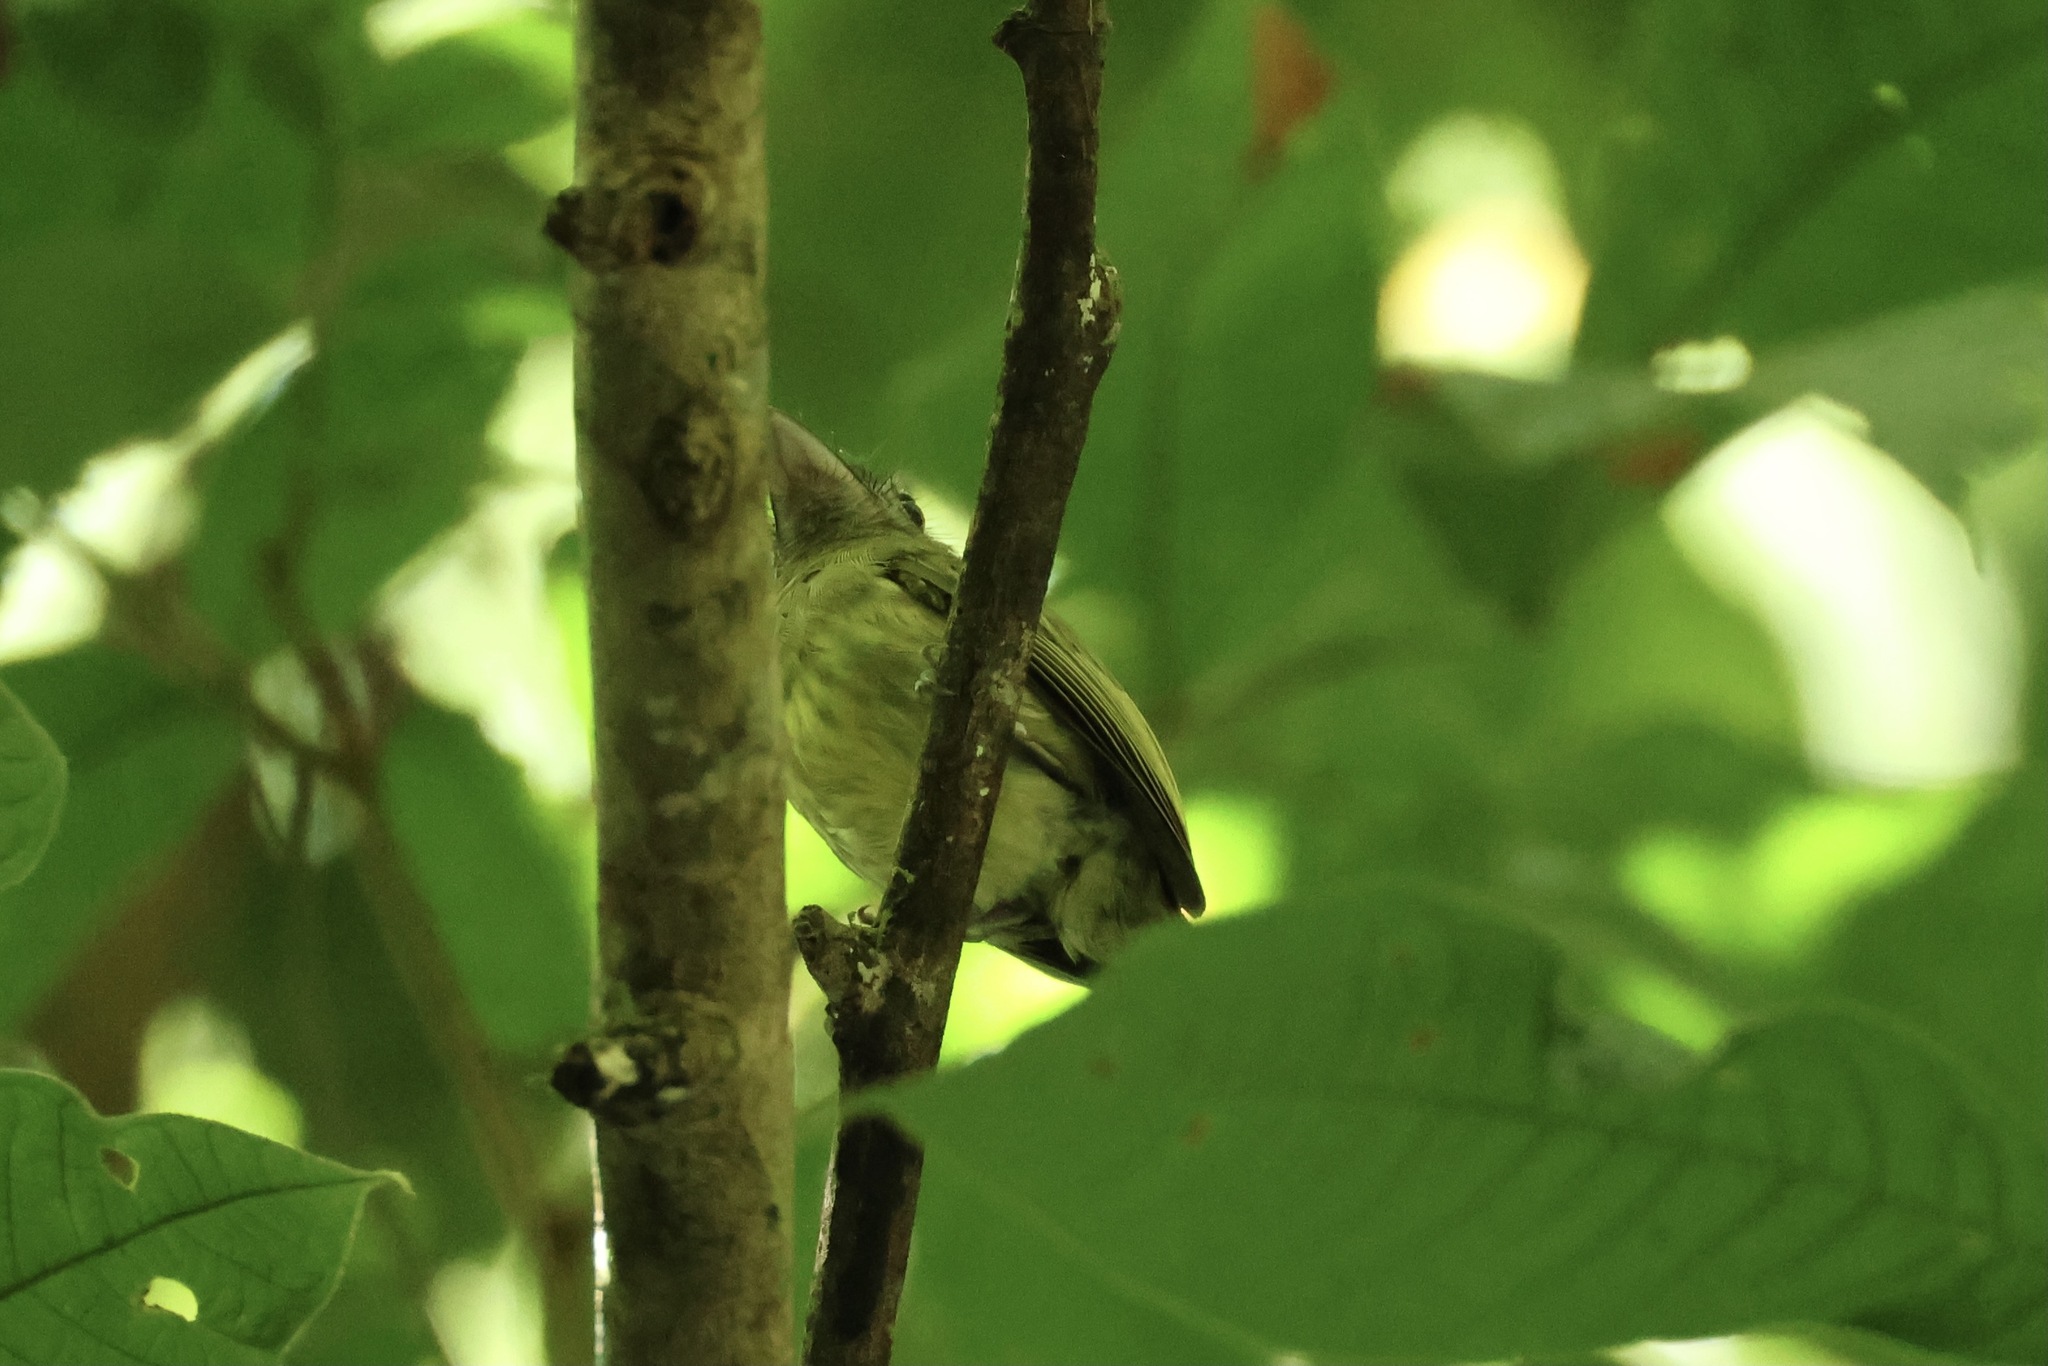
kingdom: Animalia
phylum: Chordata
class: Aves
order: Passeriformes
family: Tyrannidae
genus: Rhynchocyclus
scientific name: Rhynchocyclus brevirostris
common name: Eye-ringed flatbill
